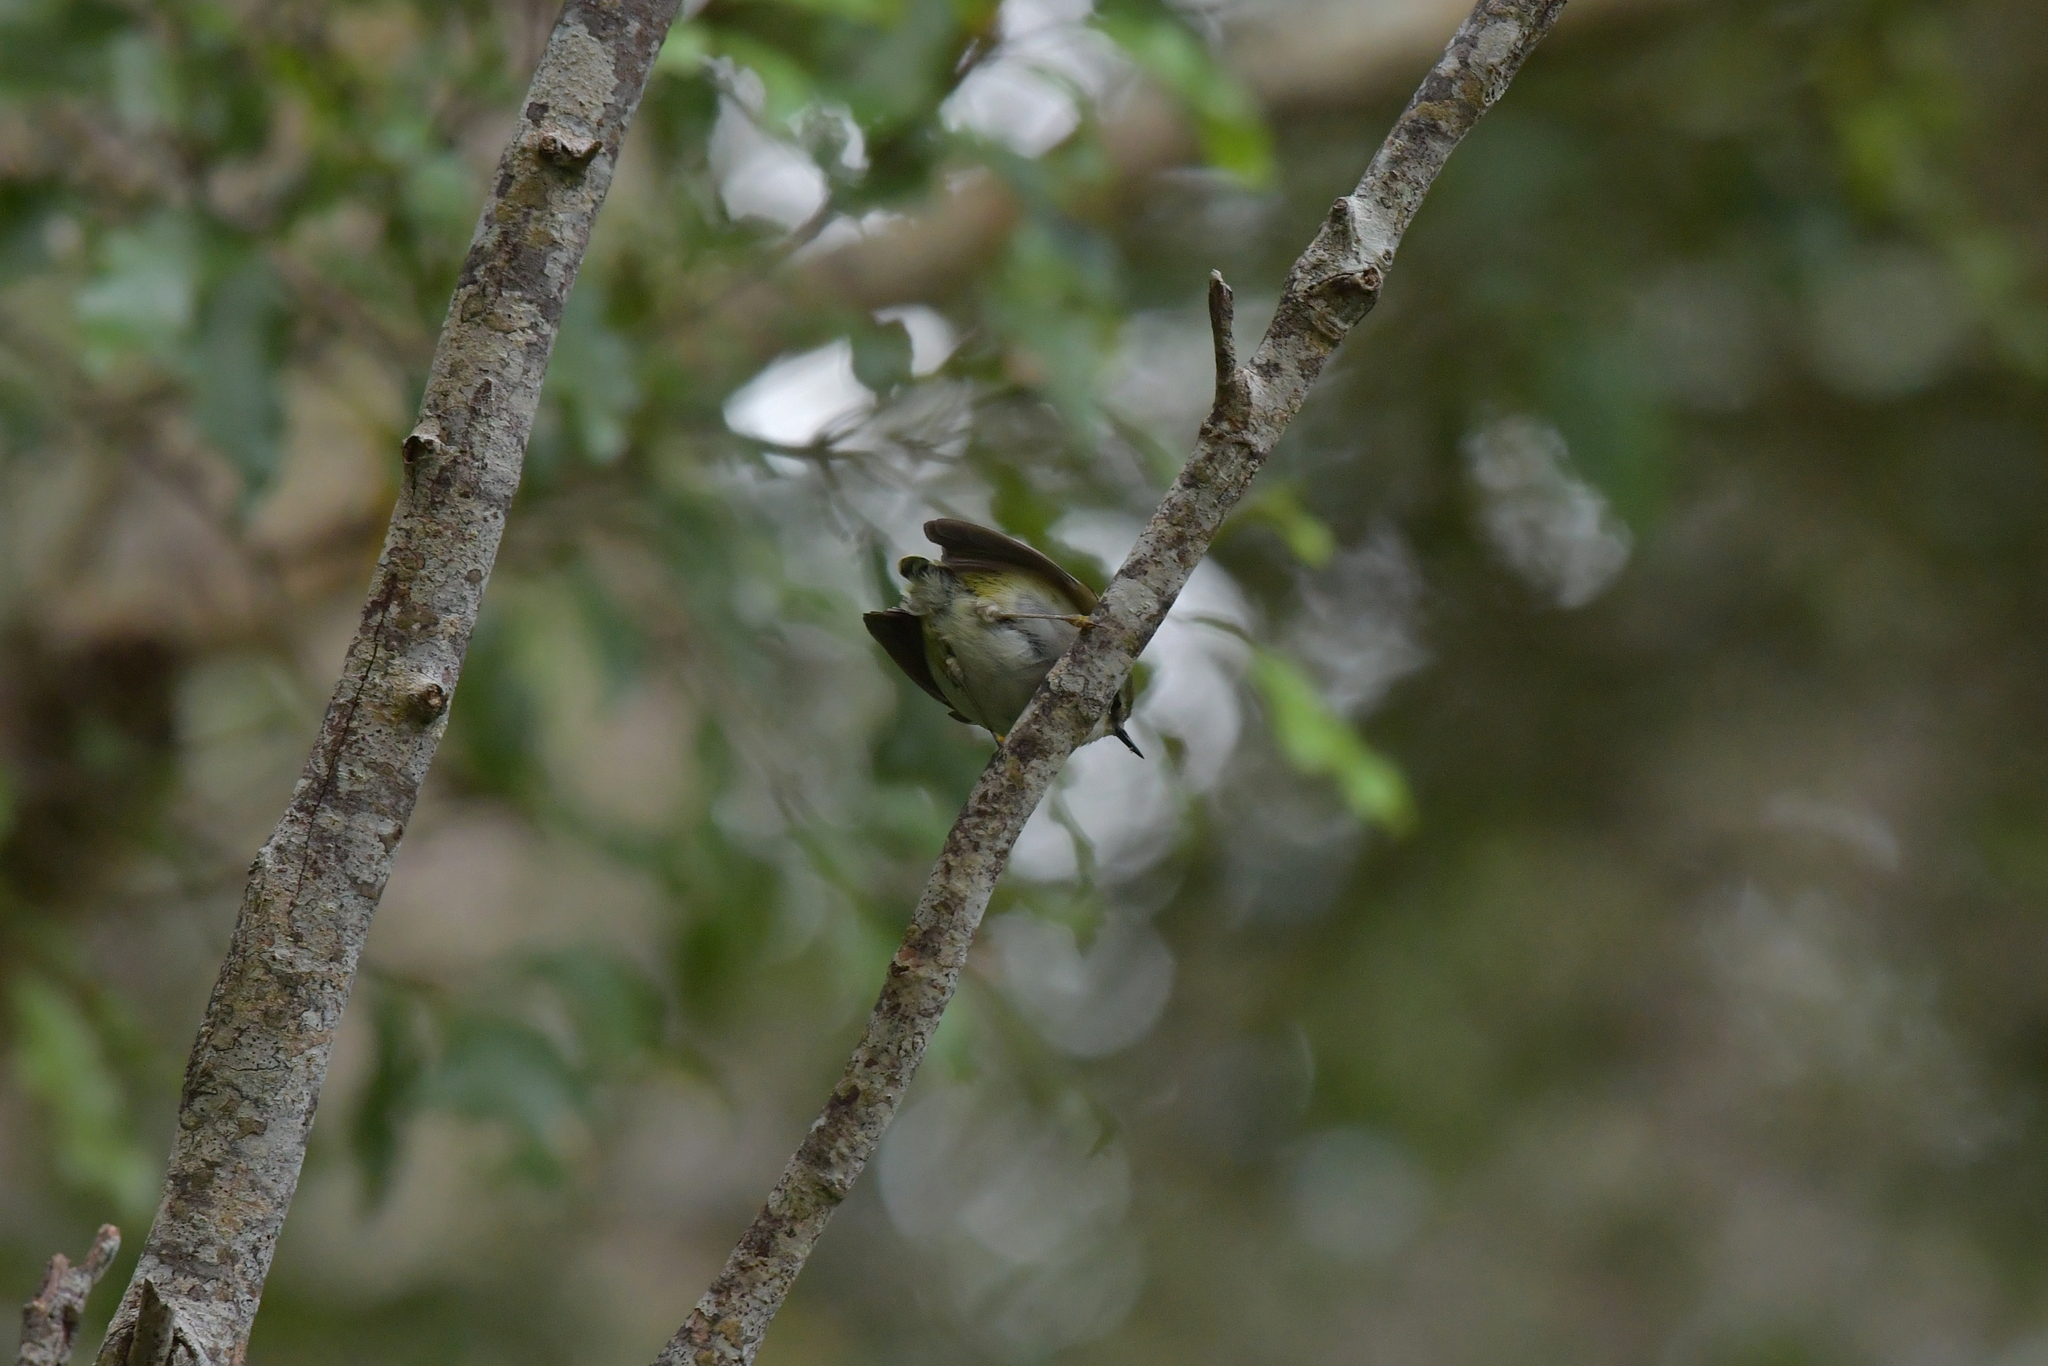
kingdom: Animalia
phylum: Chordata
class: Aves
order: Passeriformes
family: Acanthisittidae
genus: Acanthisitta
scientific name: Acanthisitta chloris
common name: Rifleman
